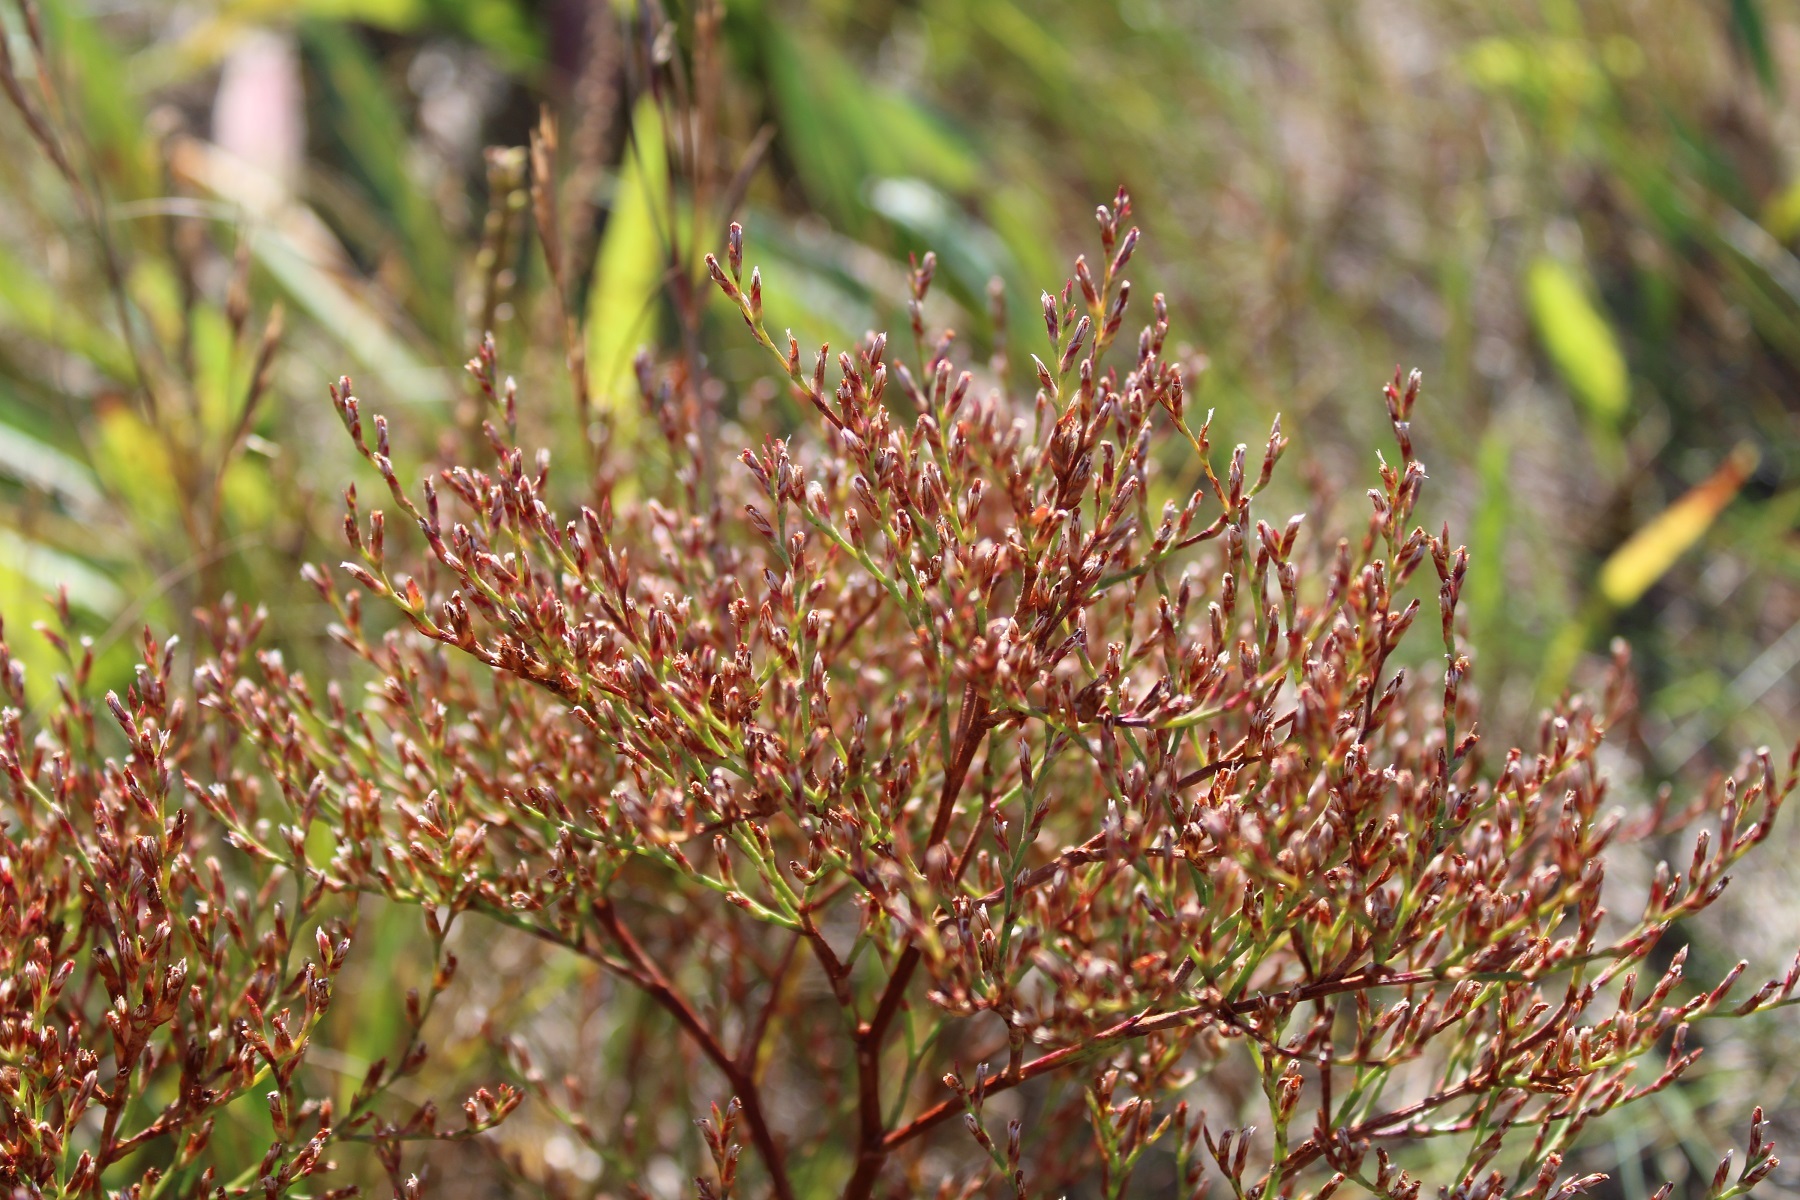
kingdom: Plantae
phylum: Tracheophyta
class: Magnoliopsida
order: Caryophyllales
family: Plumbaginaceae
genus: Limonium
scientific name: Limonium carolinianum
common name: Carolina sea lavender
